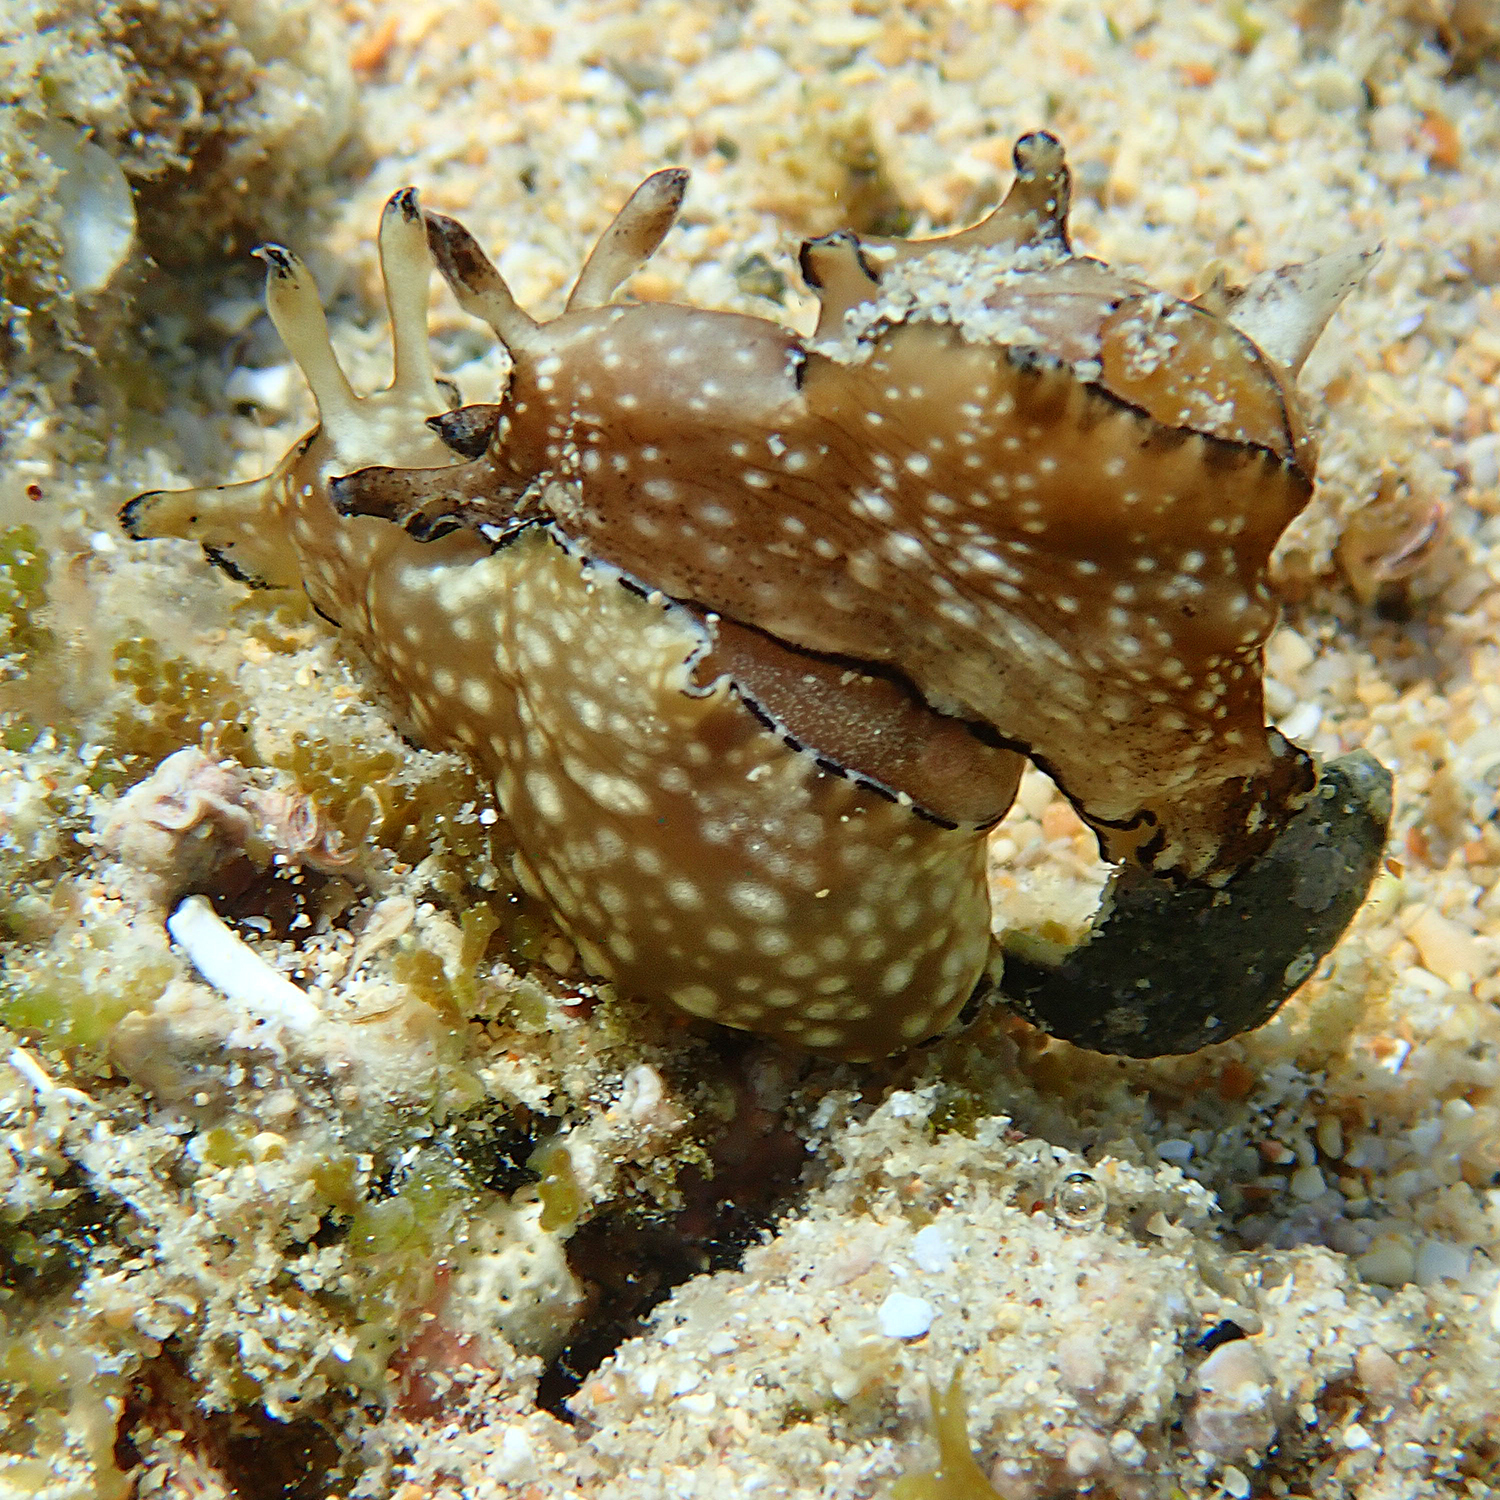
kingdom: Animalia
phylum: Mollusca
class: Gastropoda
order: Aplysiida
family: Aplysiidae
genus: Aplysia
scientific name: Aplysia concava
